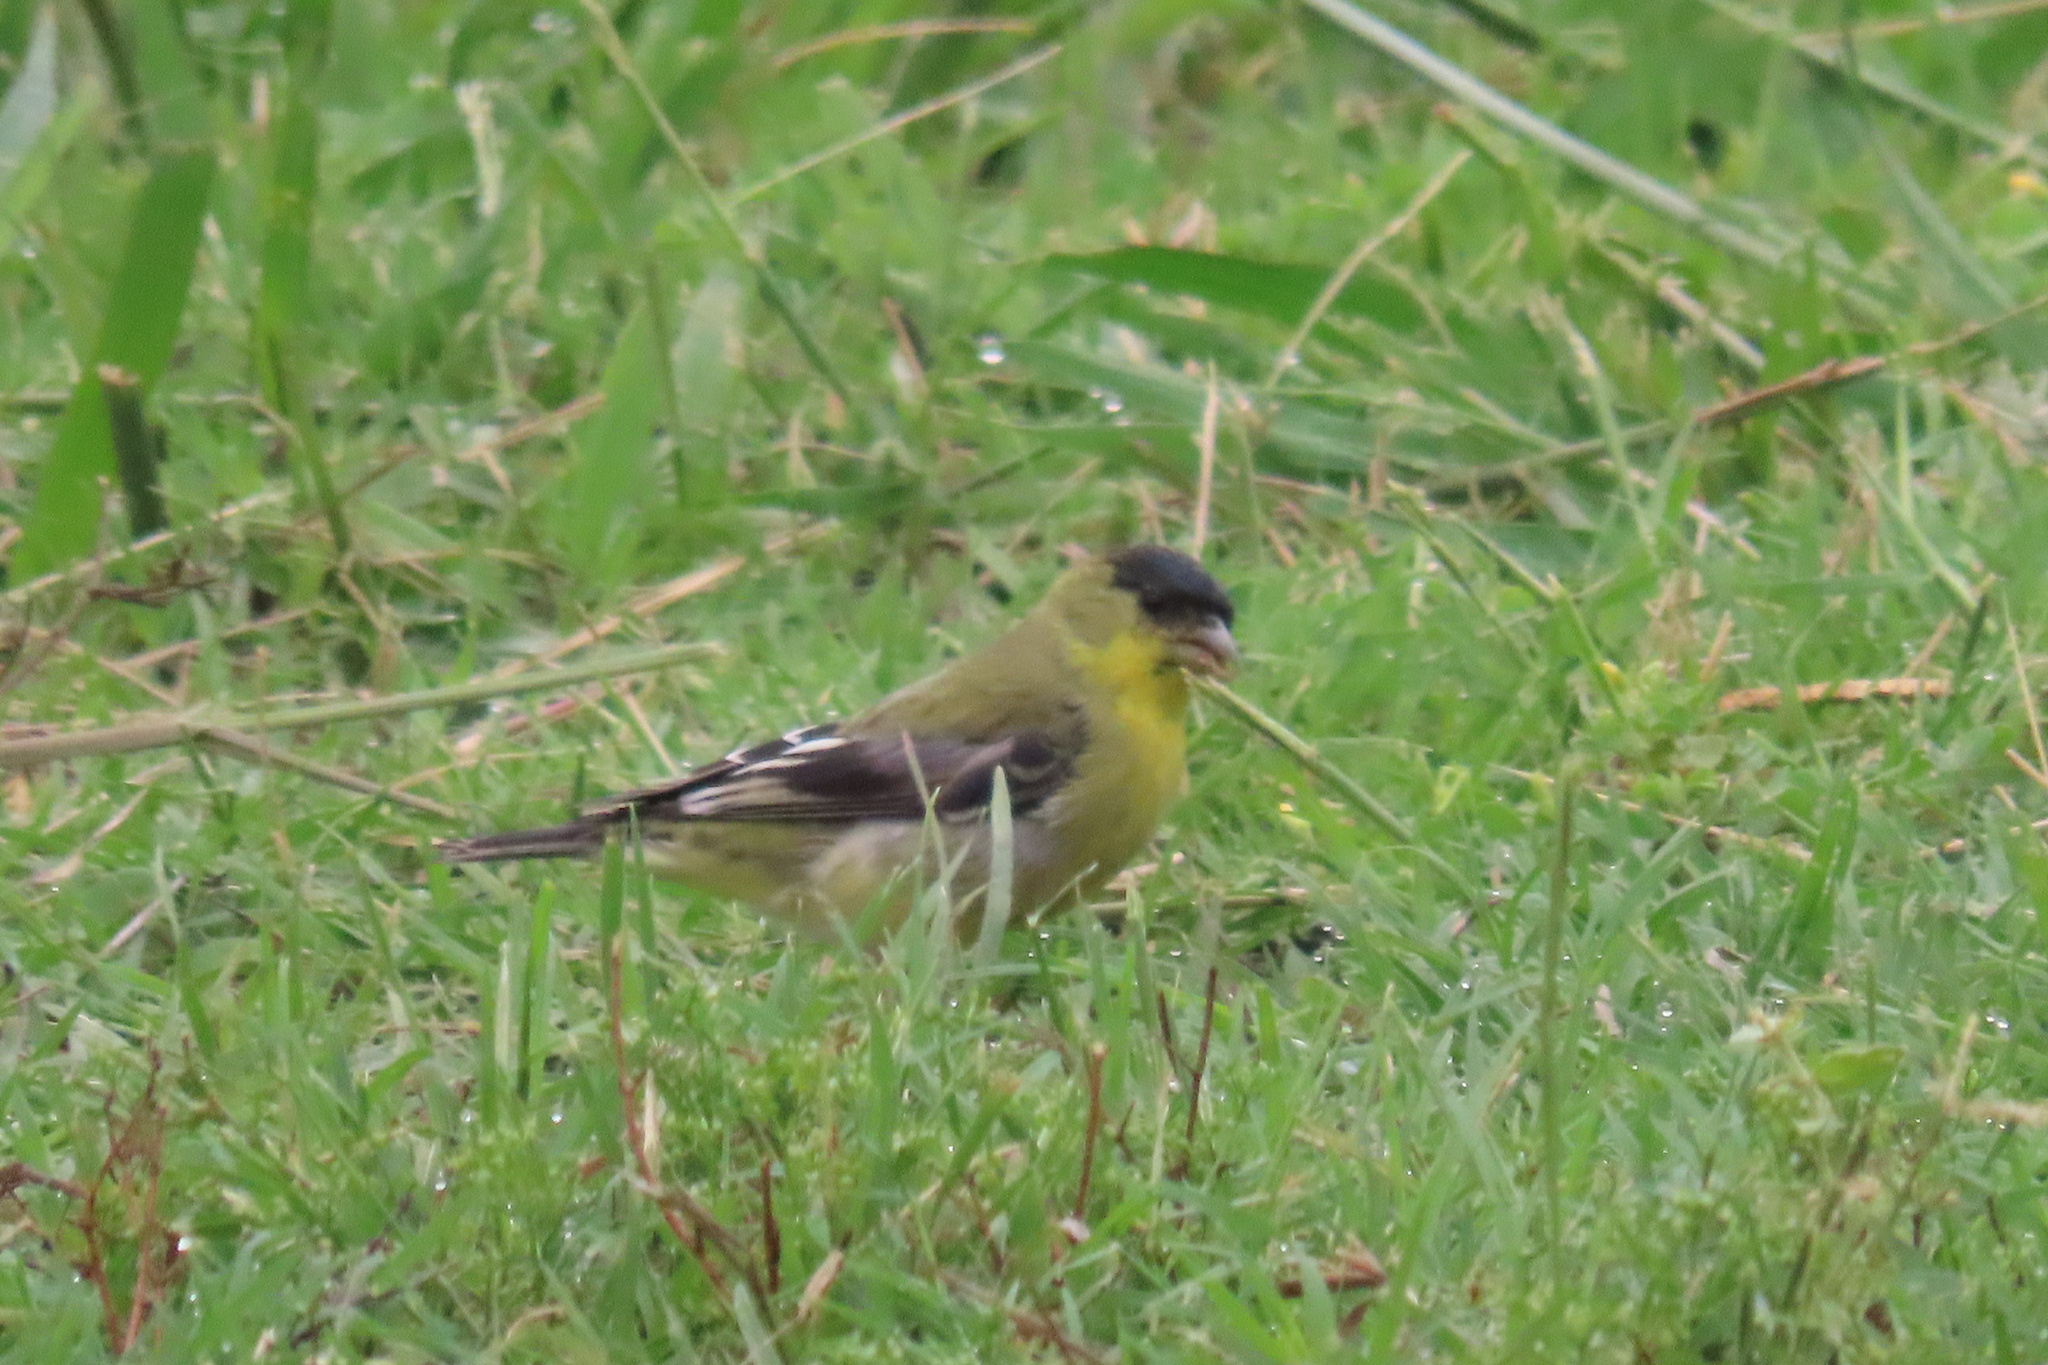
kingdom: Animalia
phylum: Chordata
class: Aves
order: Passeriformes
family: Fringillidae
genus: Spinus
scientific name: Spinus psaltria
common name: Lesser goldfinch
